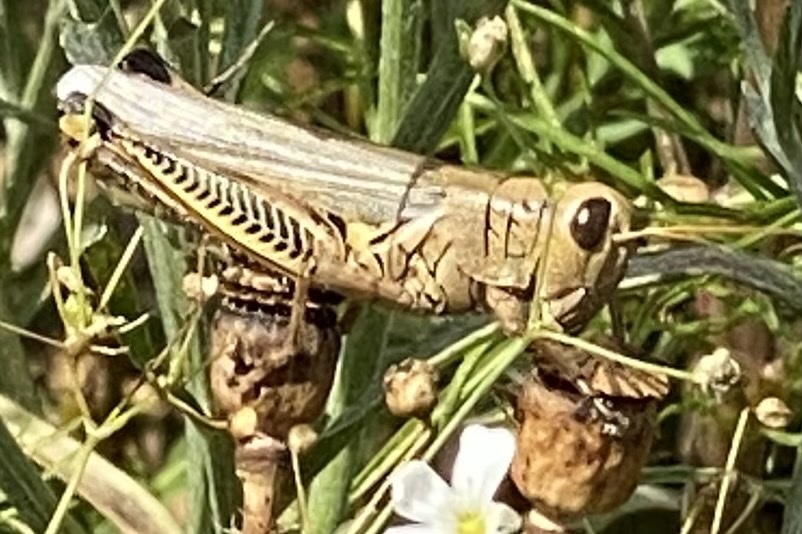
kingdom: Animalia
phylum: Arthropoda
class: Insecta
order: Orthoptera
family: Acrididae
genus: Melanoplus
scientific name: Melanoplus differentialis
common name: Differential grasshopper
